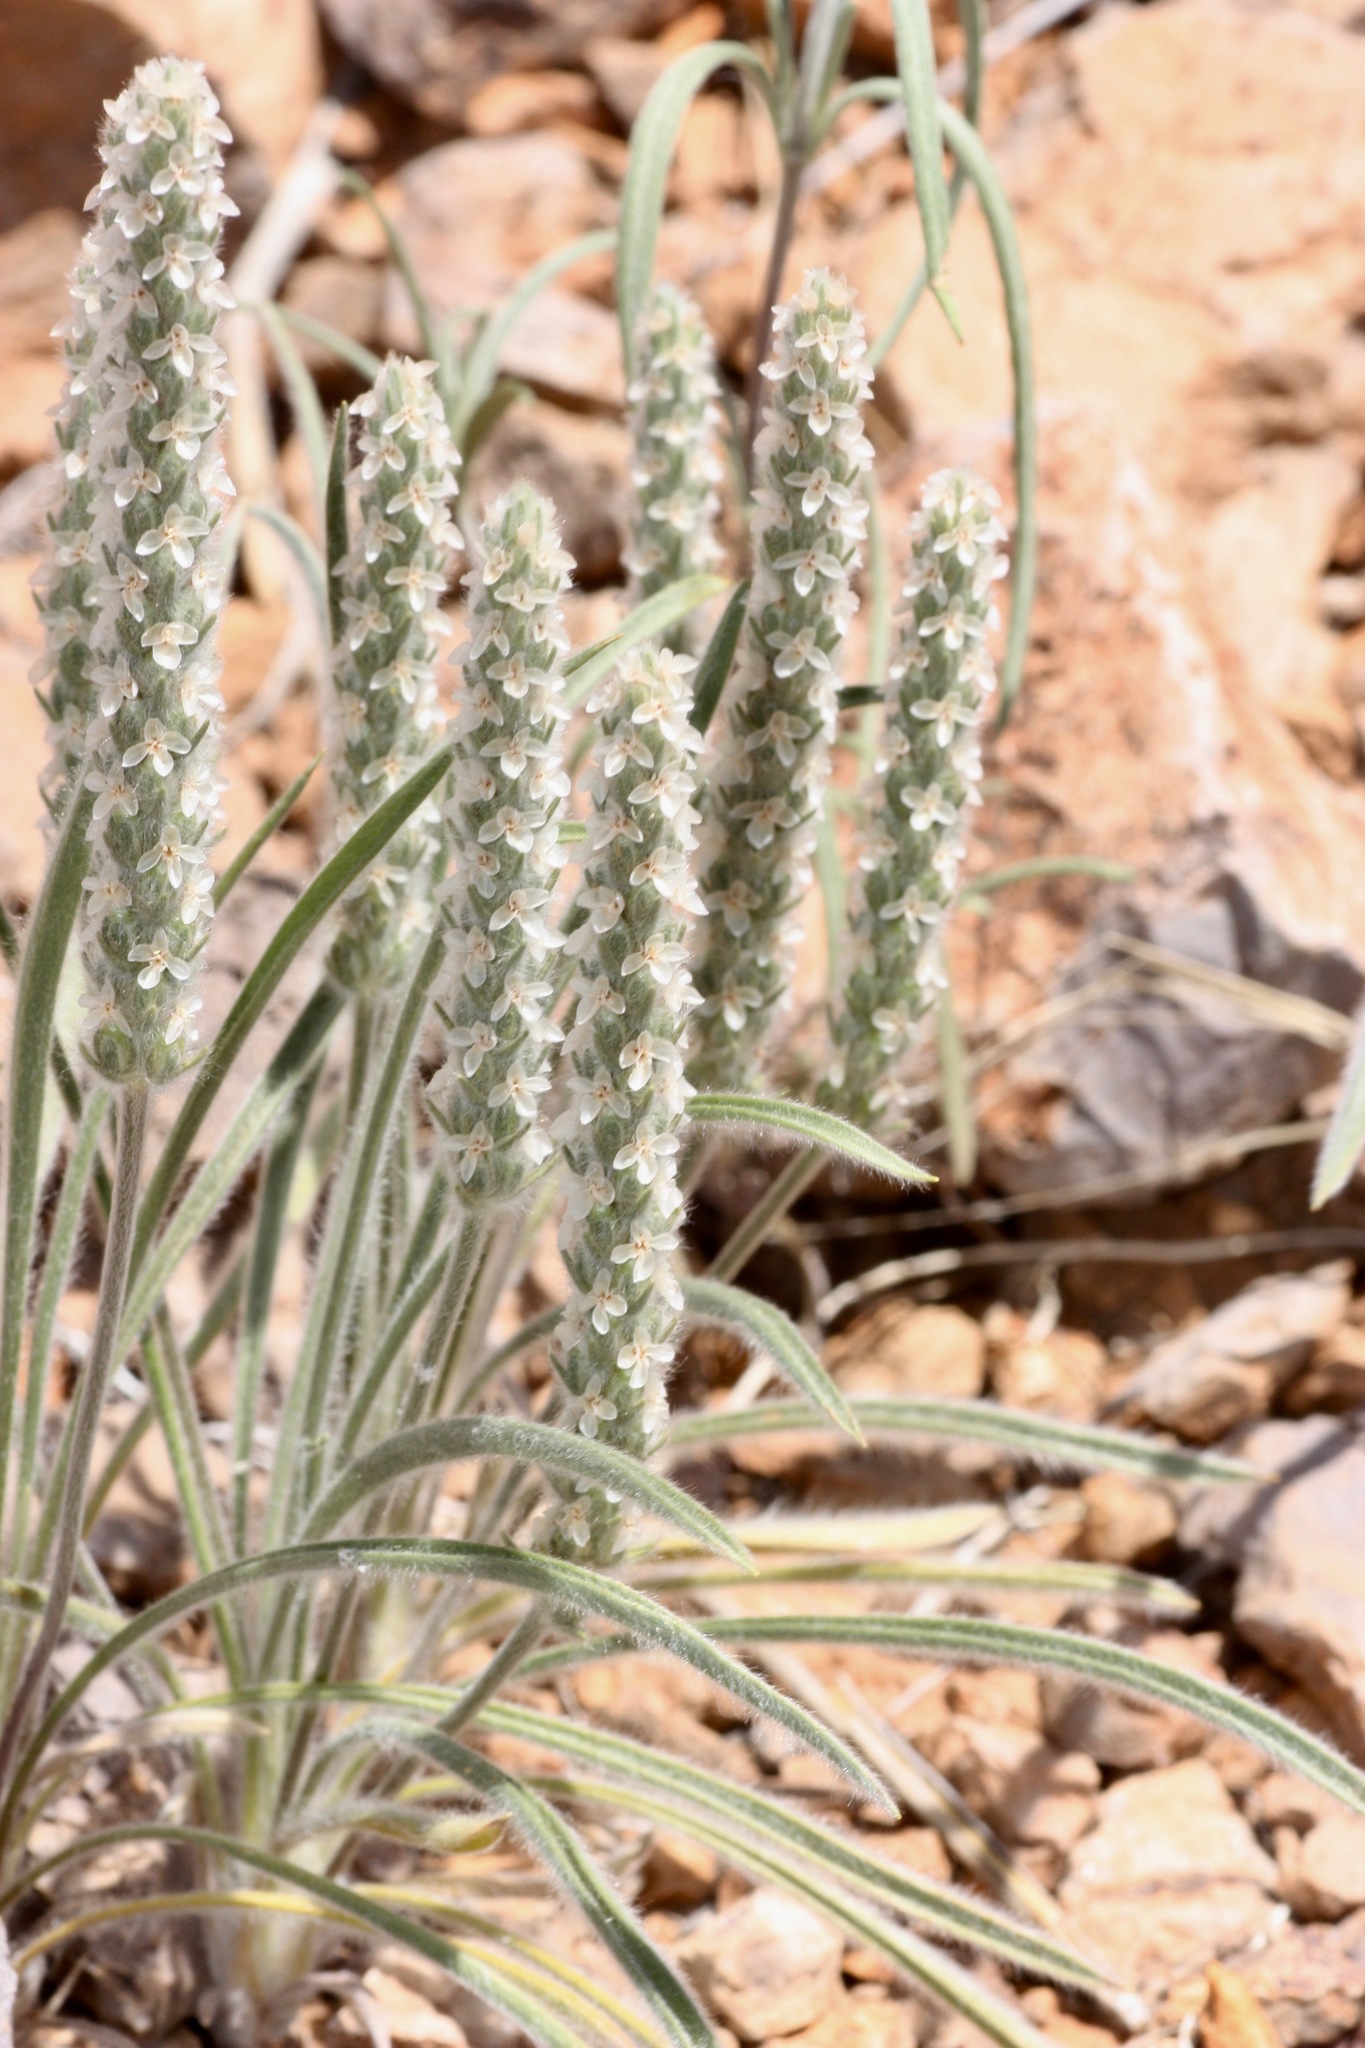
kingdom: Plantae
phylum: Tracheophyta
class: Magnoliopsida
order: Lamiales
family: Plantaginaceae
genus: Plantago
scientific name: Plantago patagonica
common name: Patagonia indian-wheat
